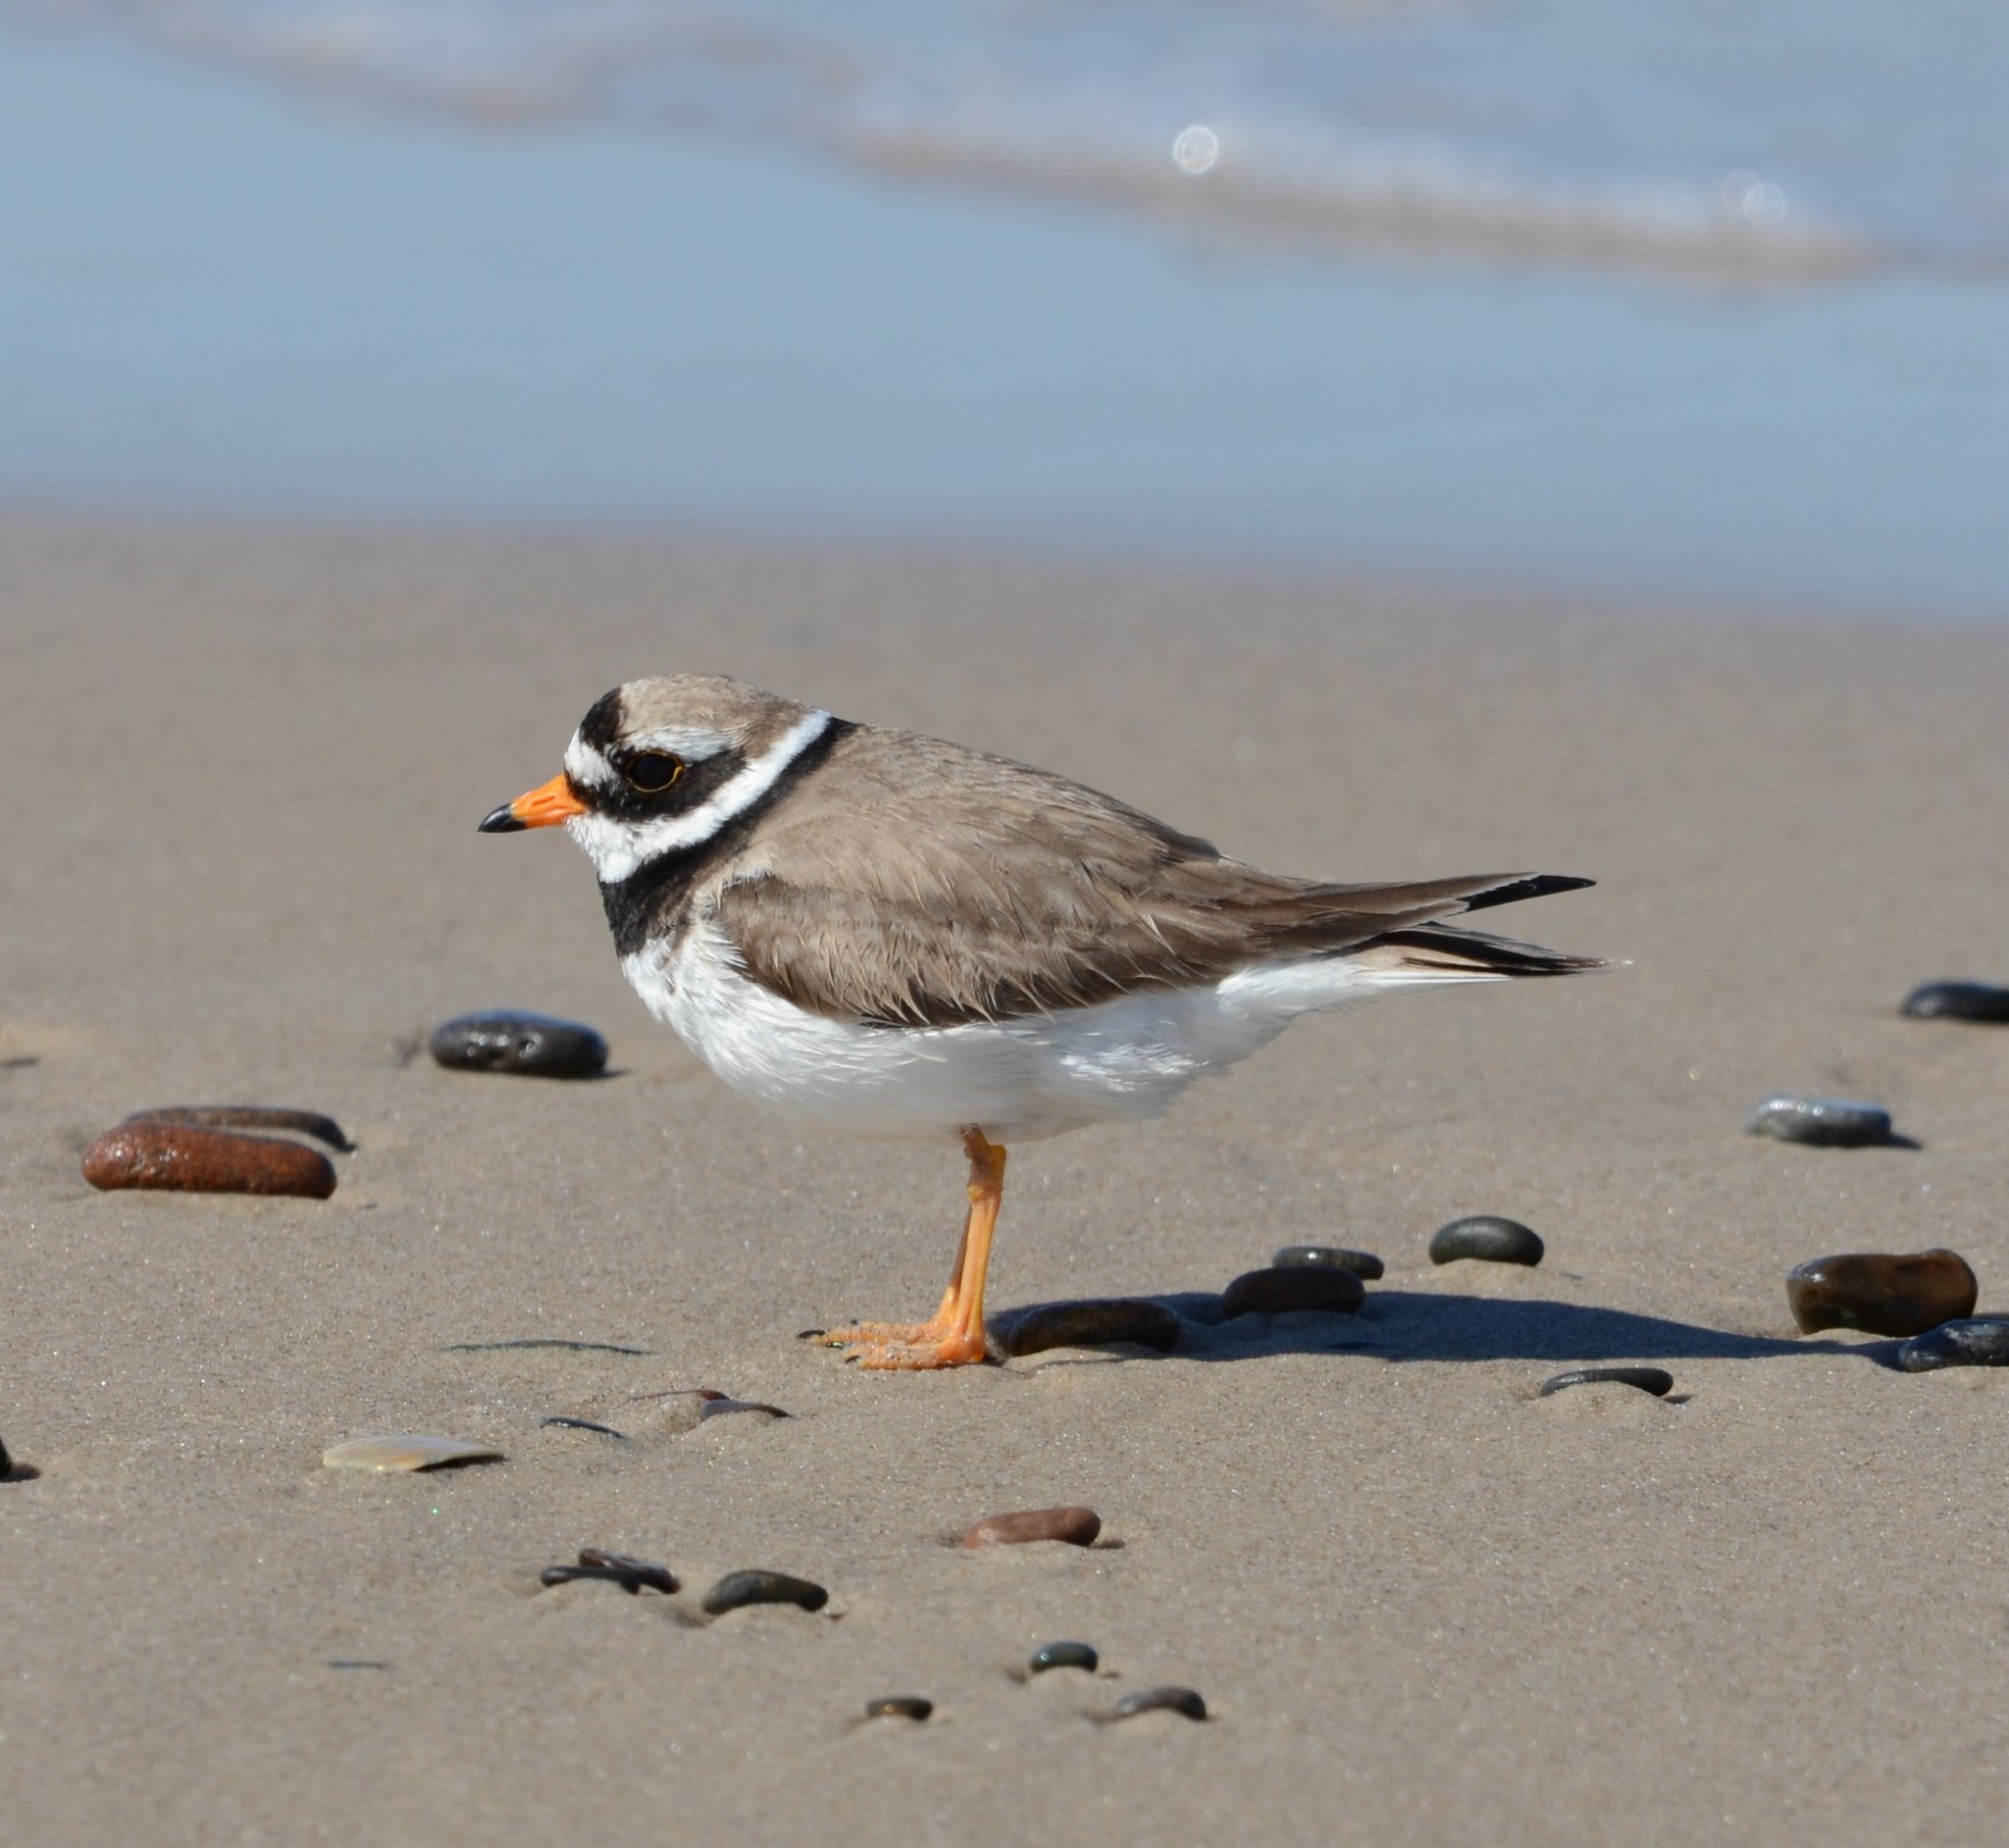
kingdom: Animalia
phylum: Chordata
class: Aves
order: Charadriiformes
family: Charadriidae
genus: Charadrius
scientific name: Charadrius hiaticula
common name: Common ringed plover
